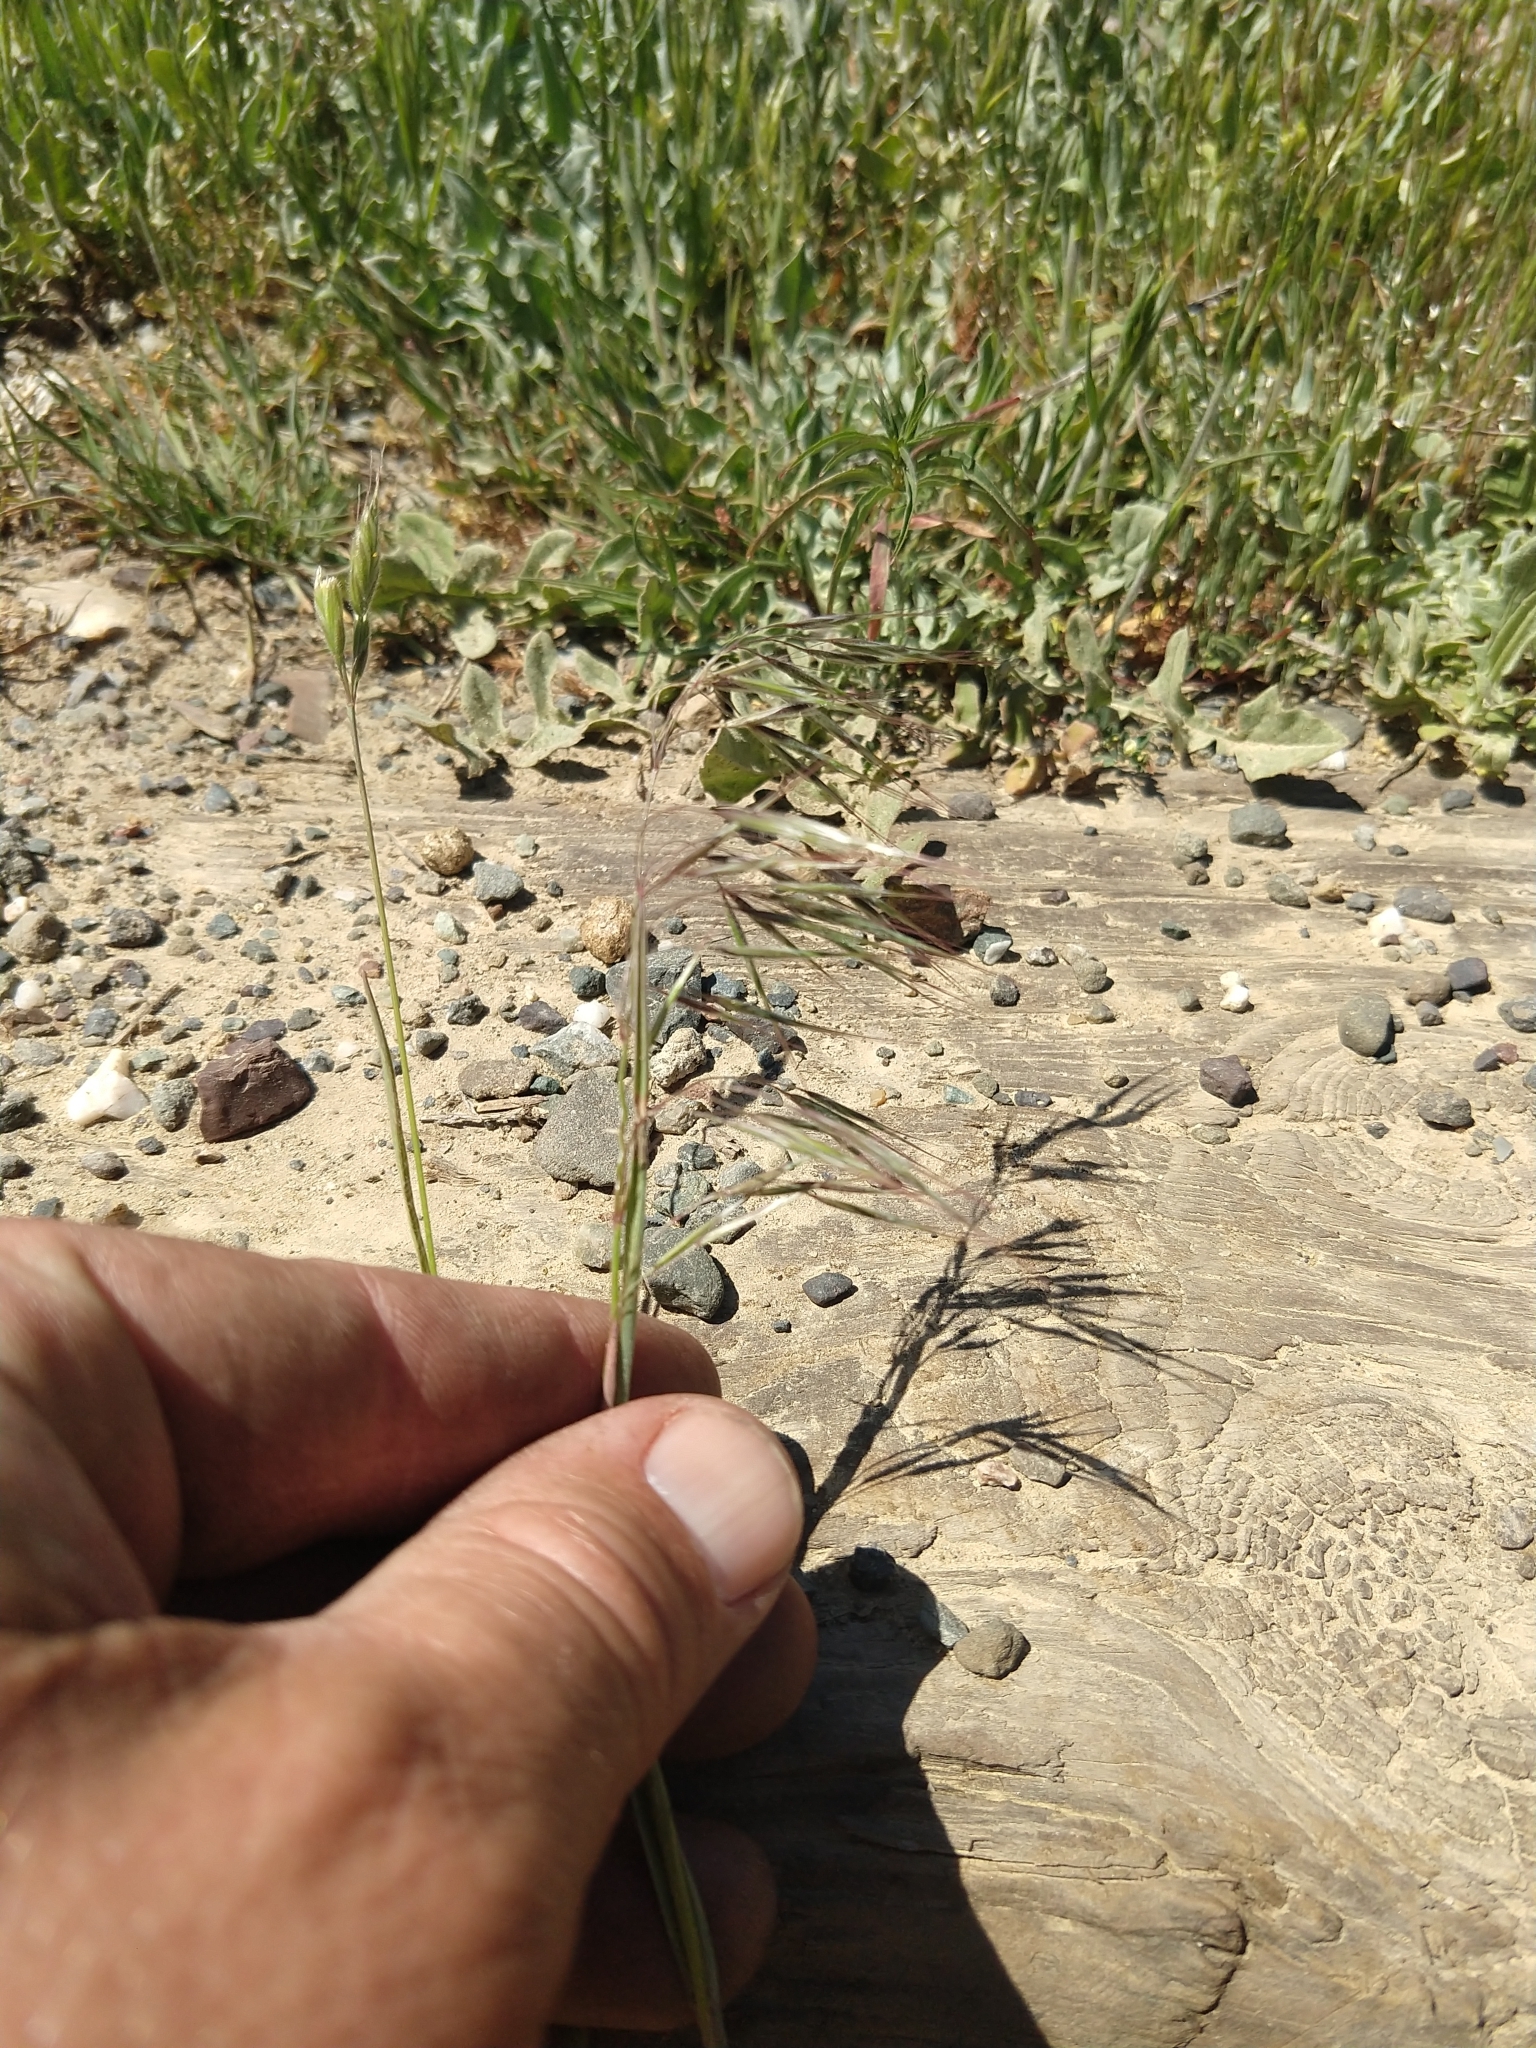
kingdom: Plantae
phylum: Tracheophyta
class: Liliopsida
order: Poales
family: Poaceae
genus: Bromus
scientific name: Bromus tectorum
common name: Cheatgrass
